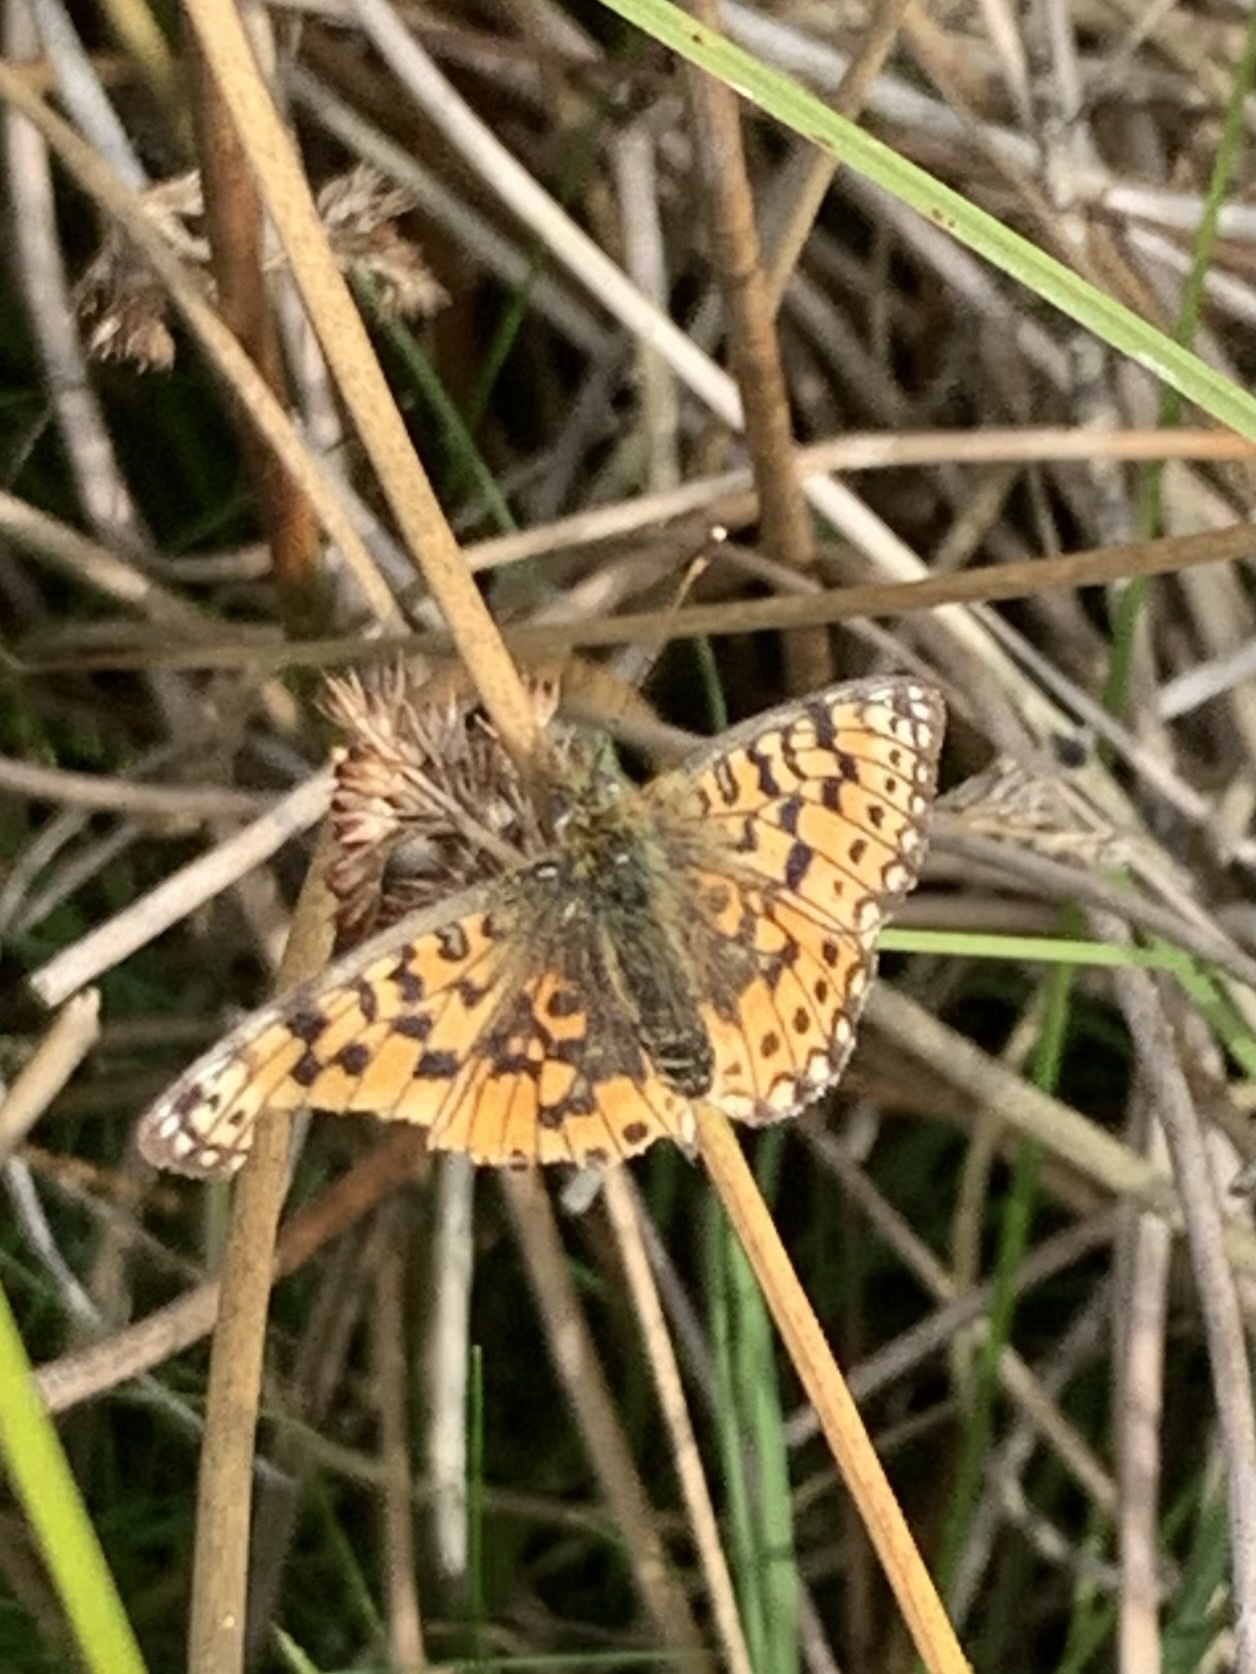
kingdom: Animalia
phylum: Arthropoda
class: Insecta
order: Lepidoptera
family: Nymphalidae
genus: Boloria
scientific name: Boloria selene
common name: Small pearl-bordered fritillary
